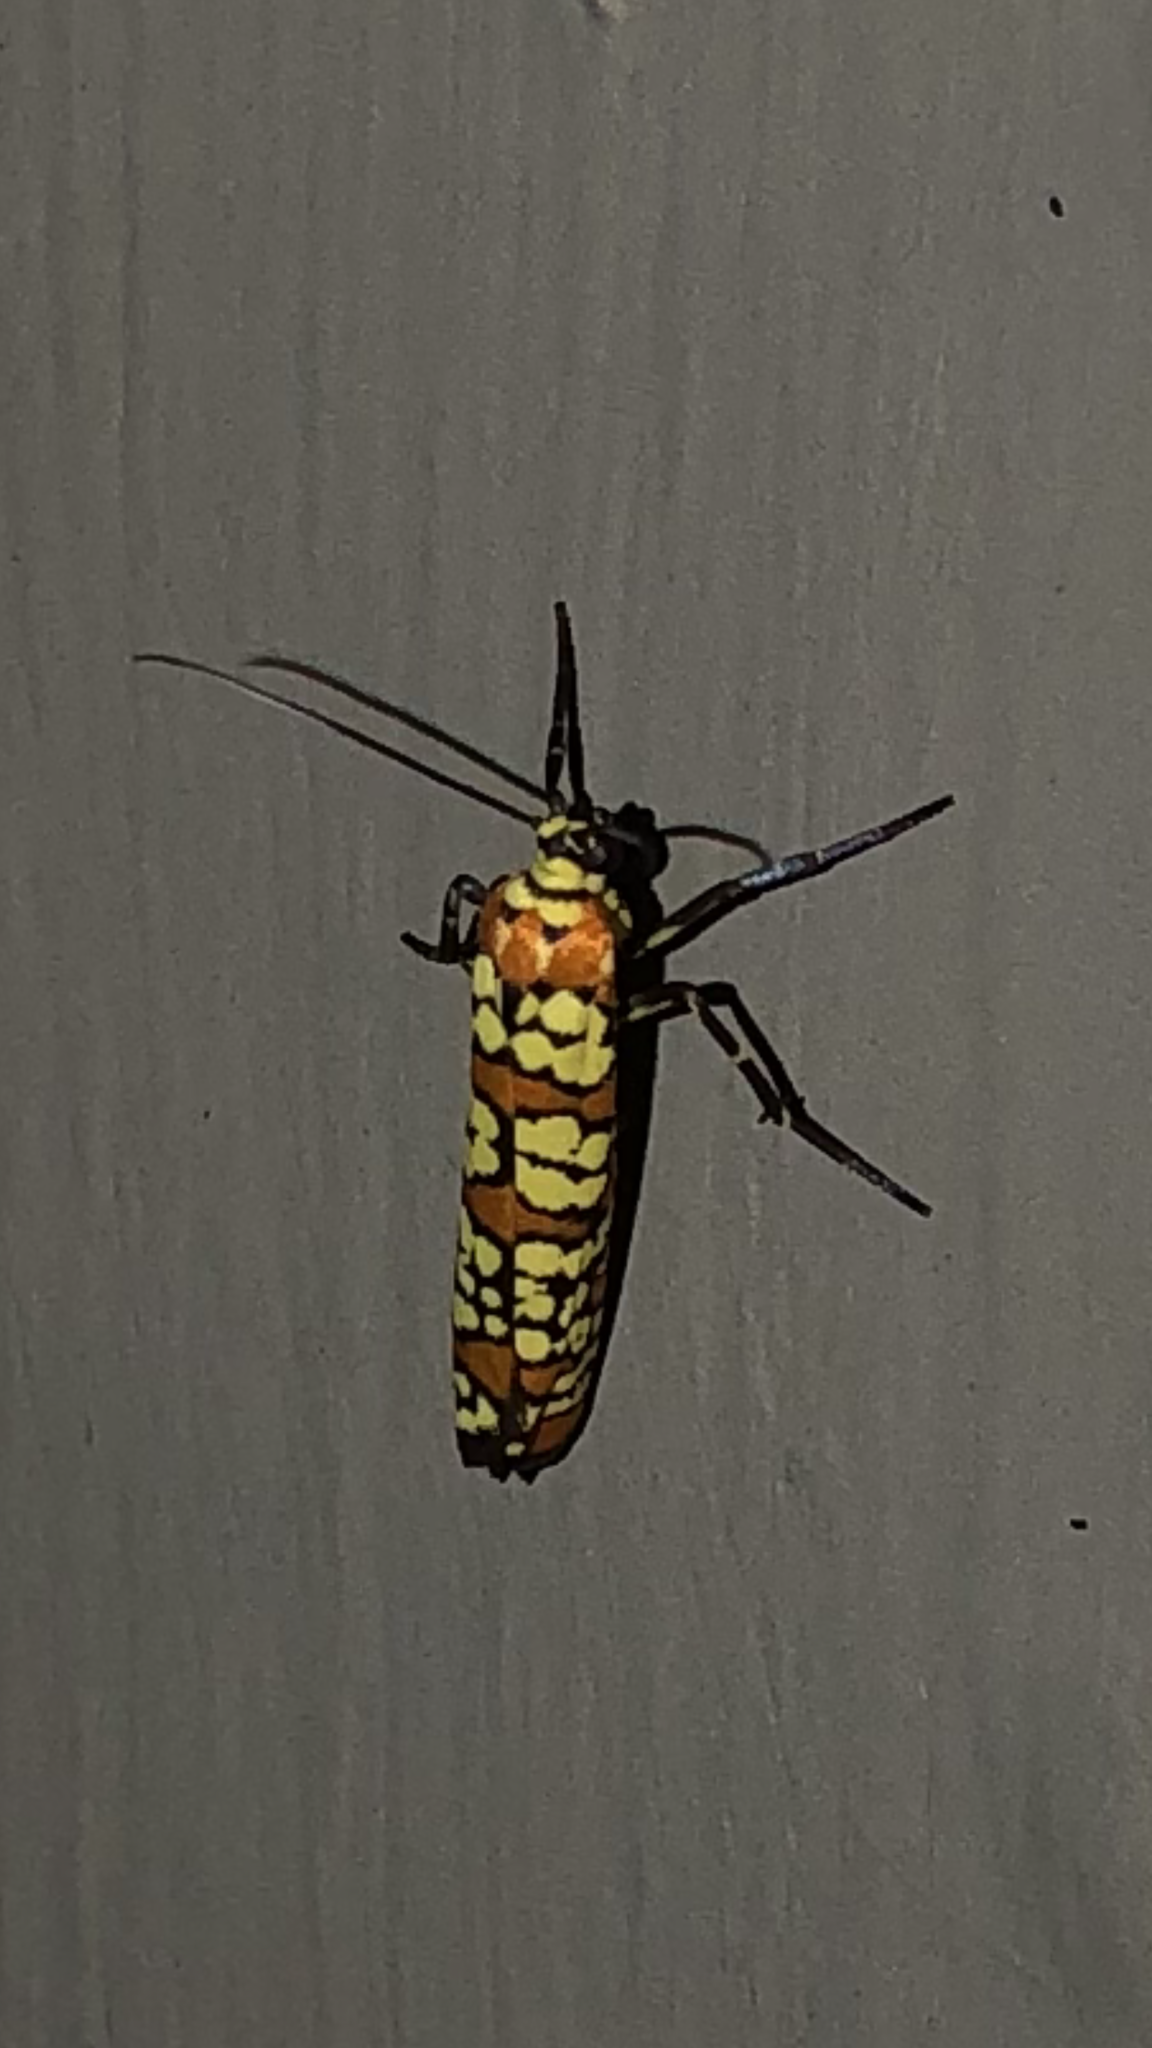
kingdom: Animalia
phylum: Arthropoda
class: Insecta
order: Lepidoptera
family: Attevidae
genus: Atteva
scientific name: Atteva punctella
